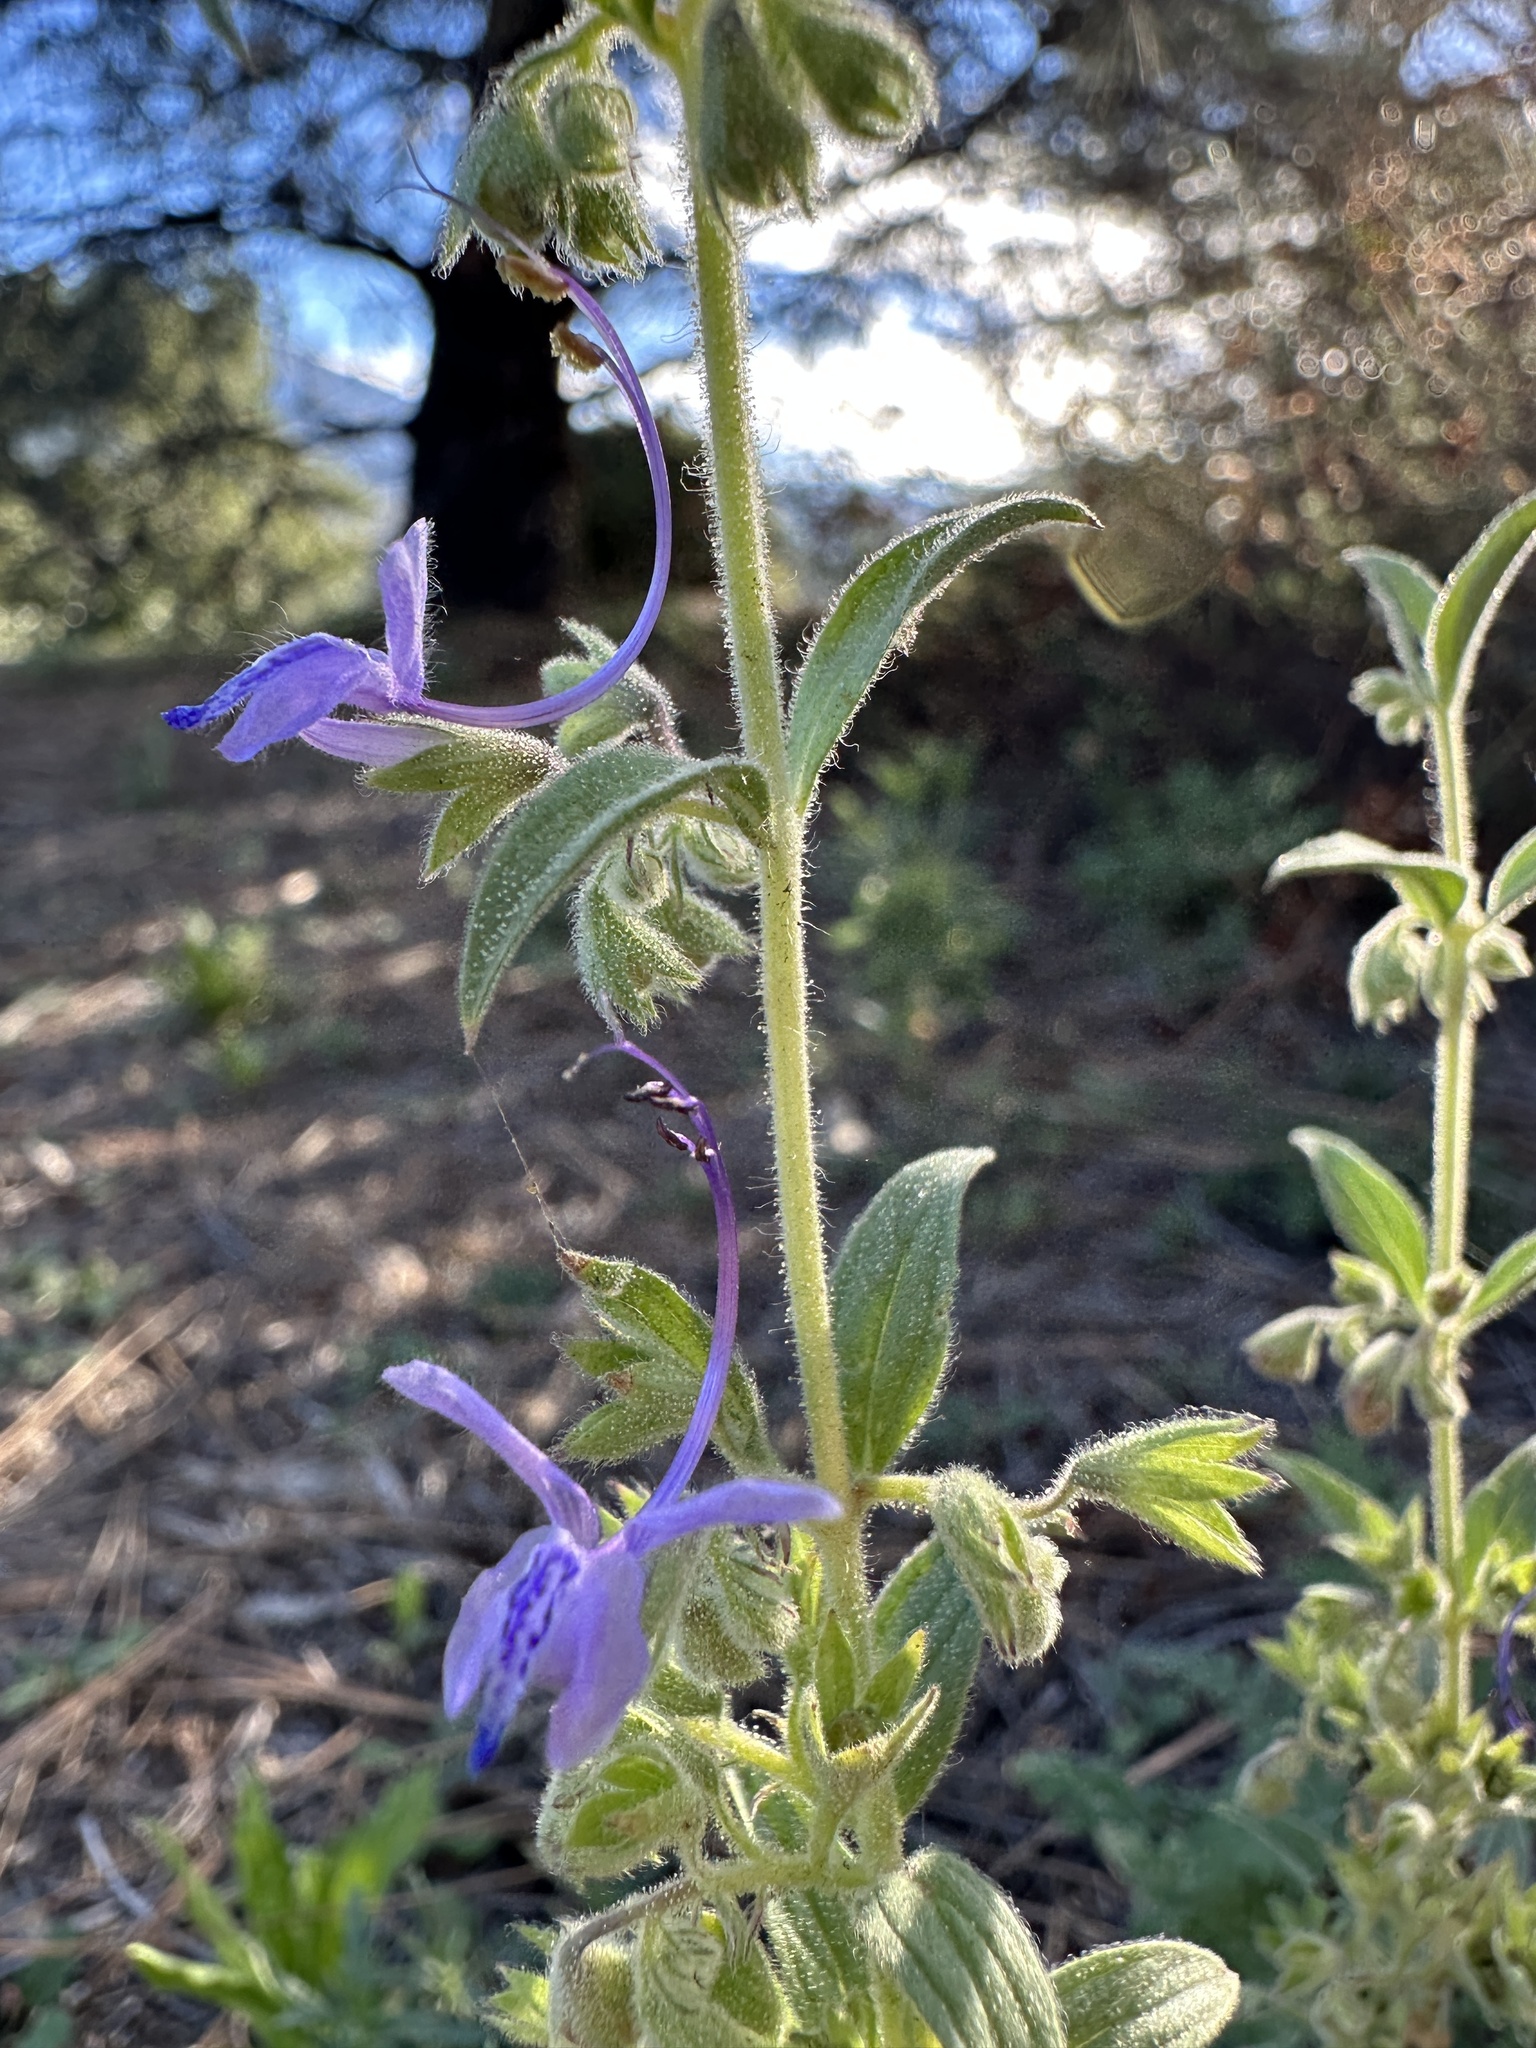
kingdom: Plantae
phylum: Tracheophyta
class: Magnoliopsida
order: Lamiales
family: Lamiaceae
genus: Trichostema
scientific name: Trichostema lanceolatum
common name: Vinegar-weed
